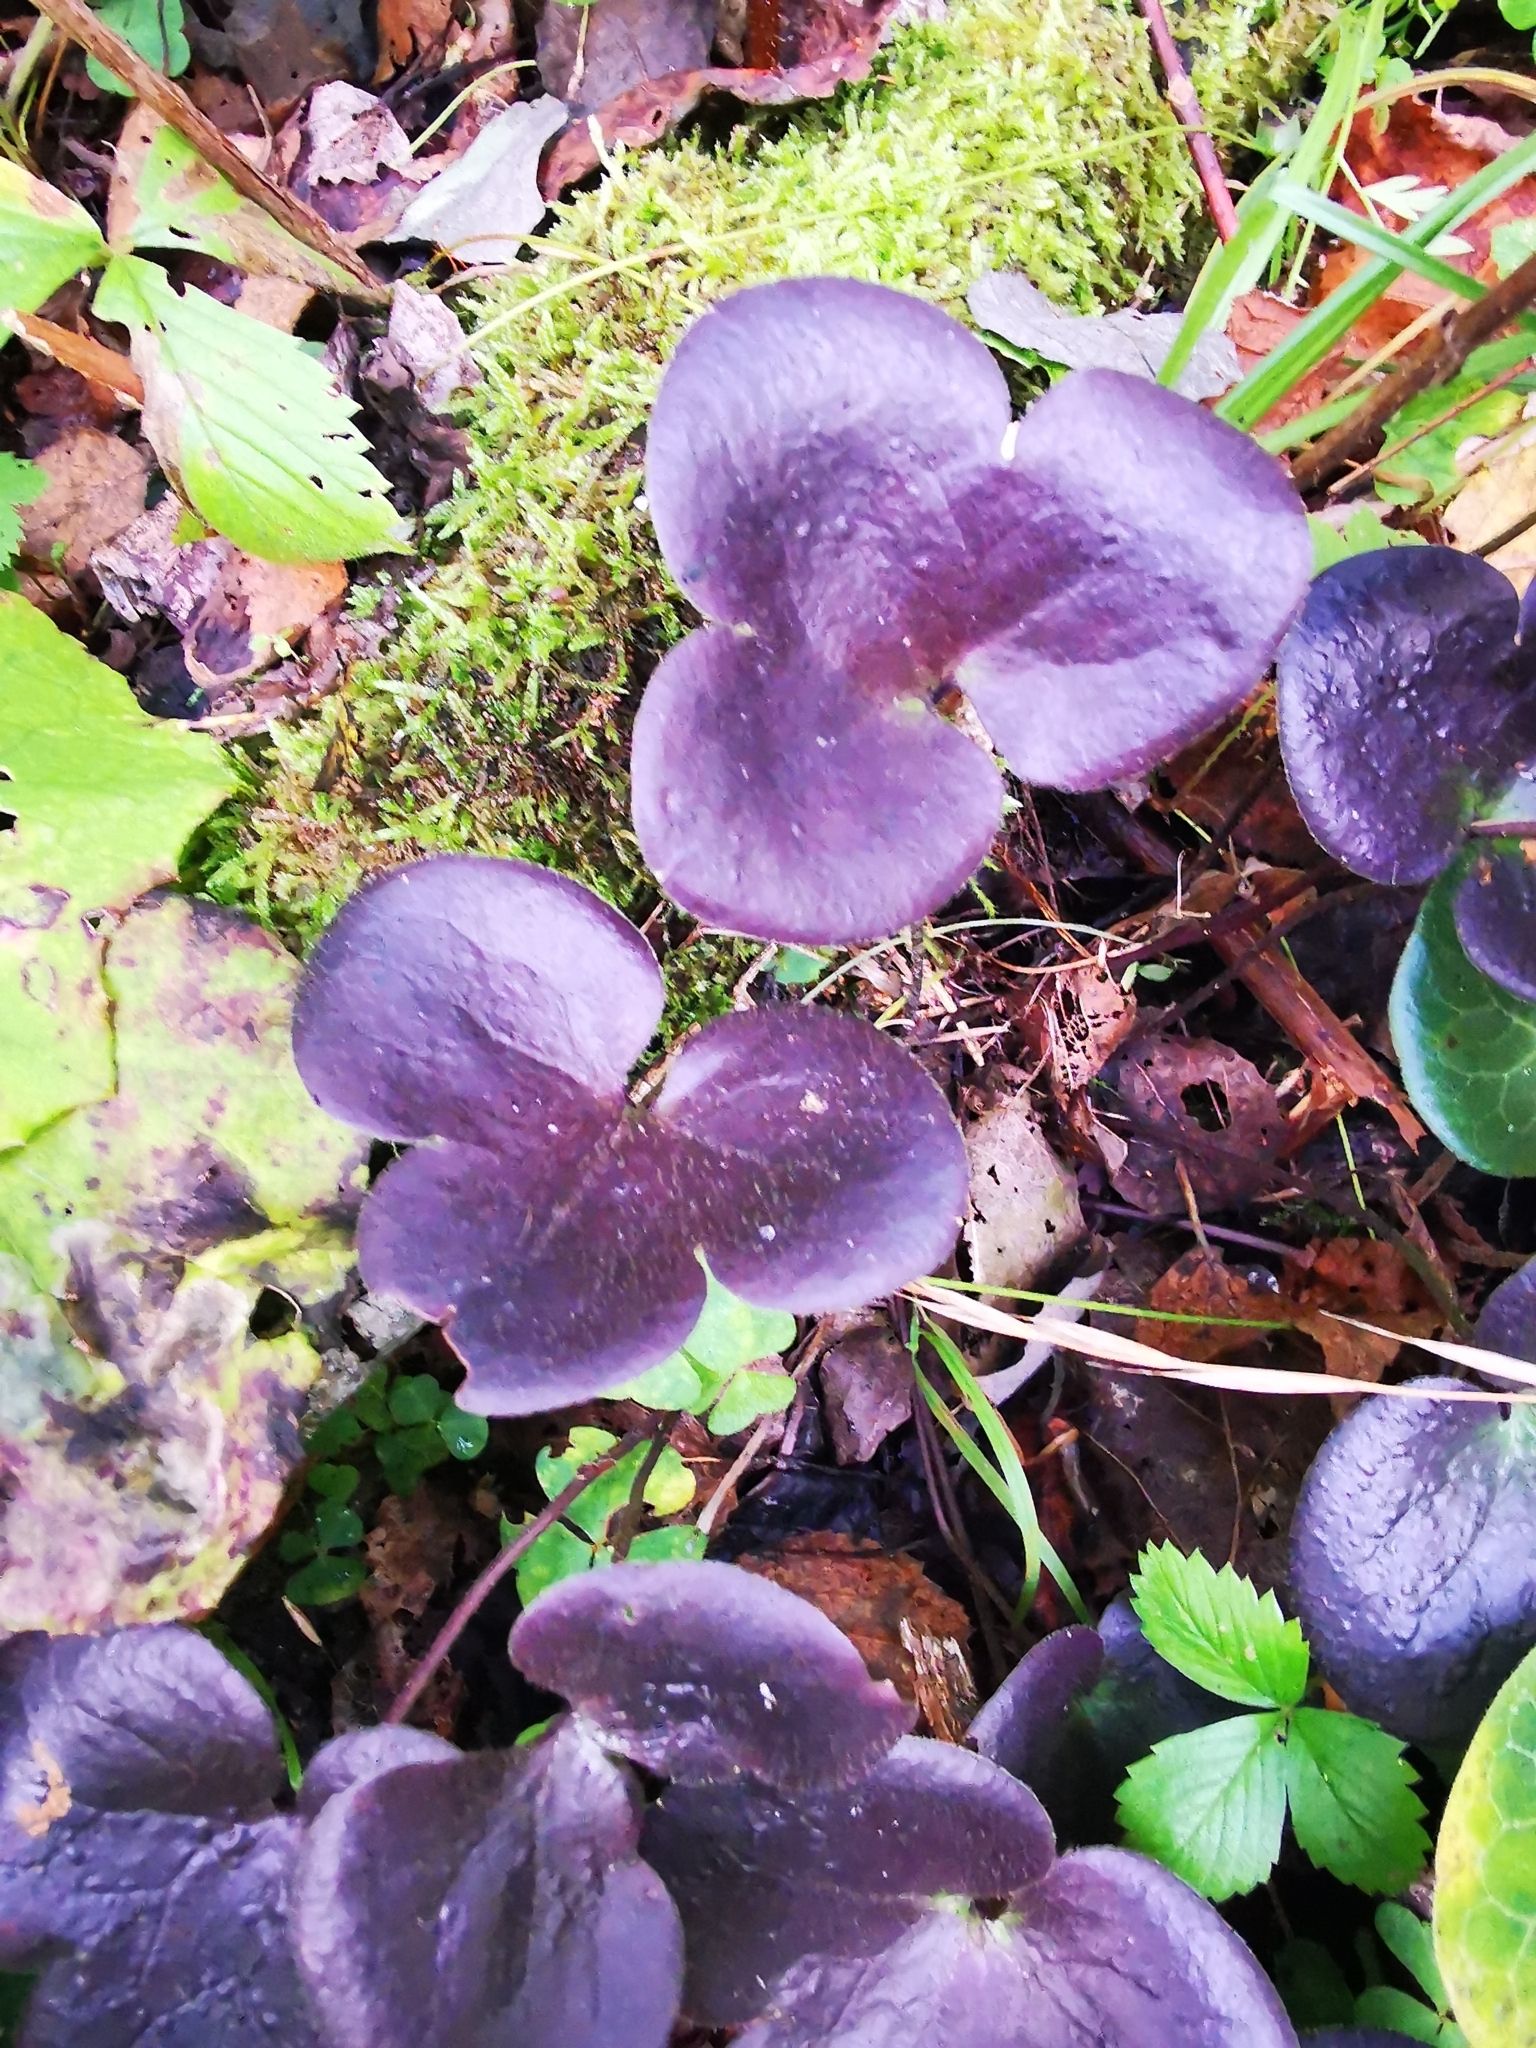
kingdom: Plantae
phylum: Tracheophyta
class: Magnoliopsida
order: Ranunculales
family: Ranunculaceae
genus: Hepatica
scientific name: Hepatica nobilis
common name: Liverleaf
